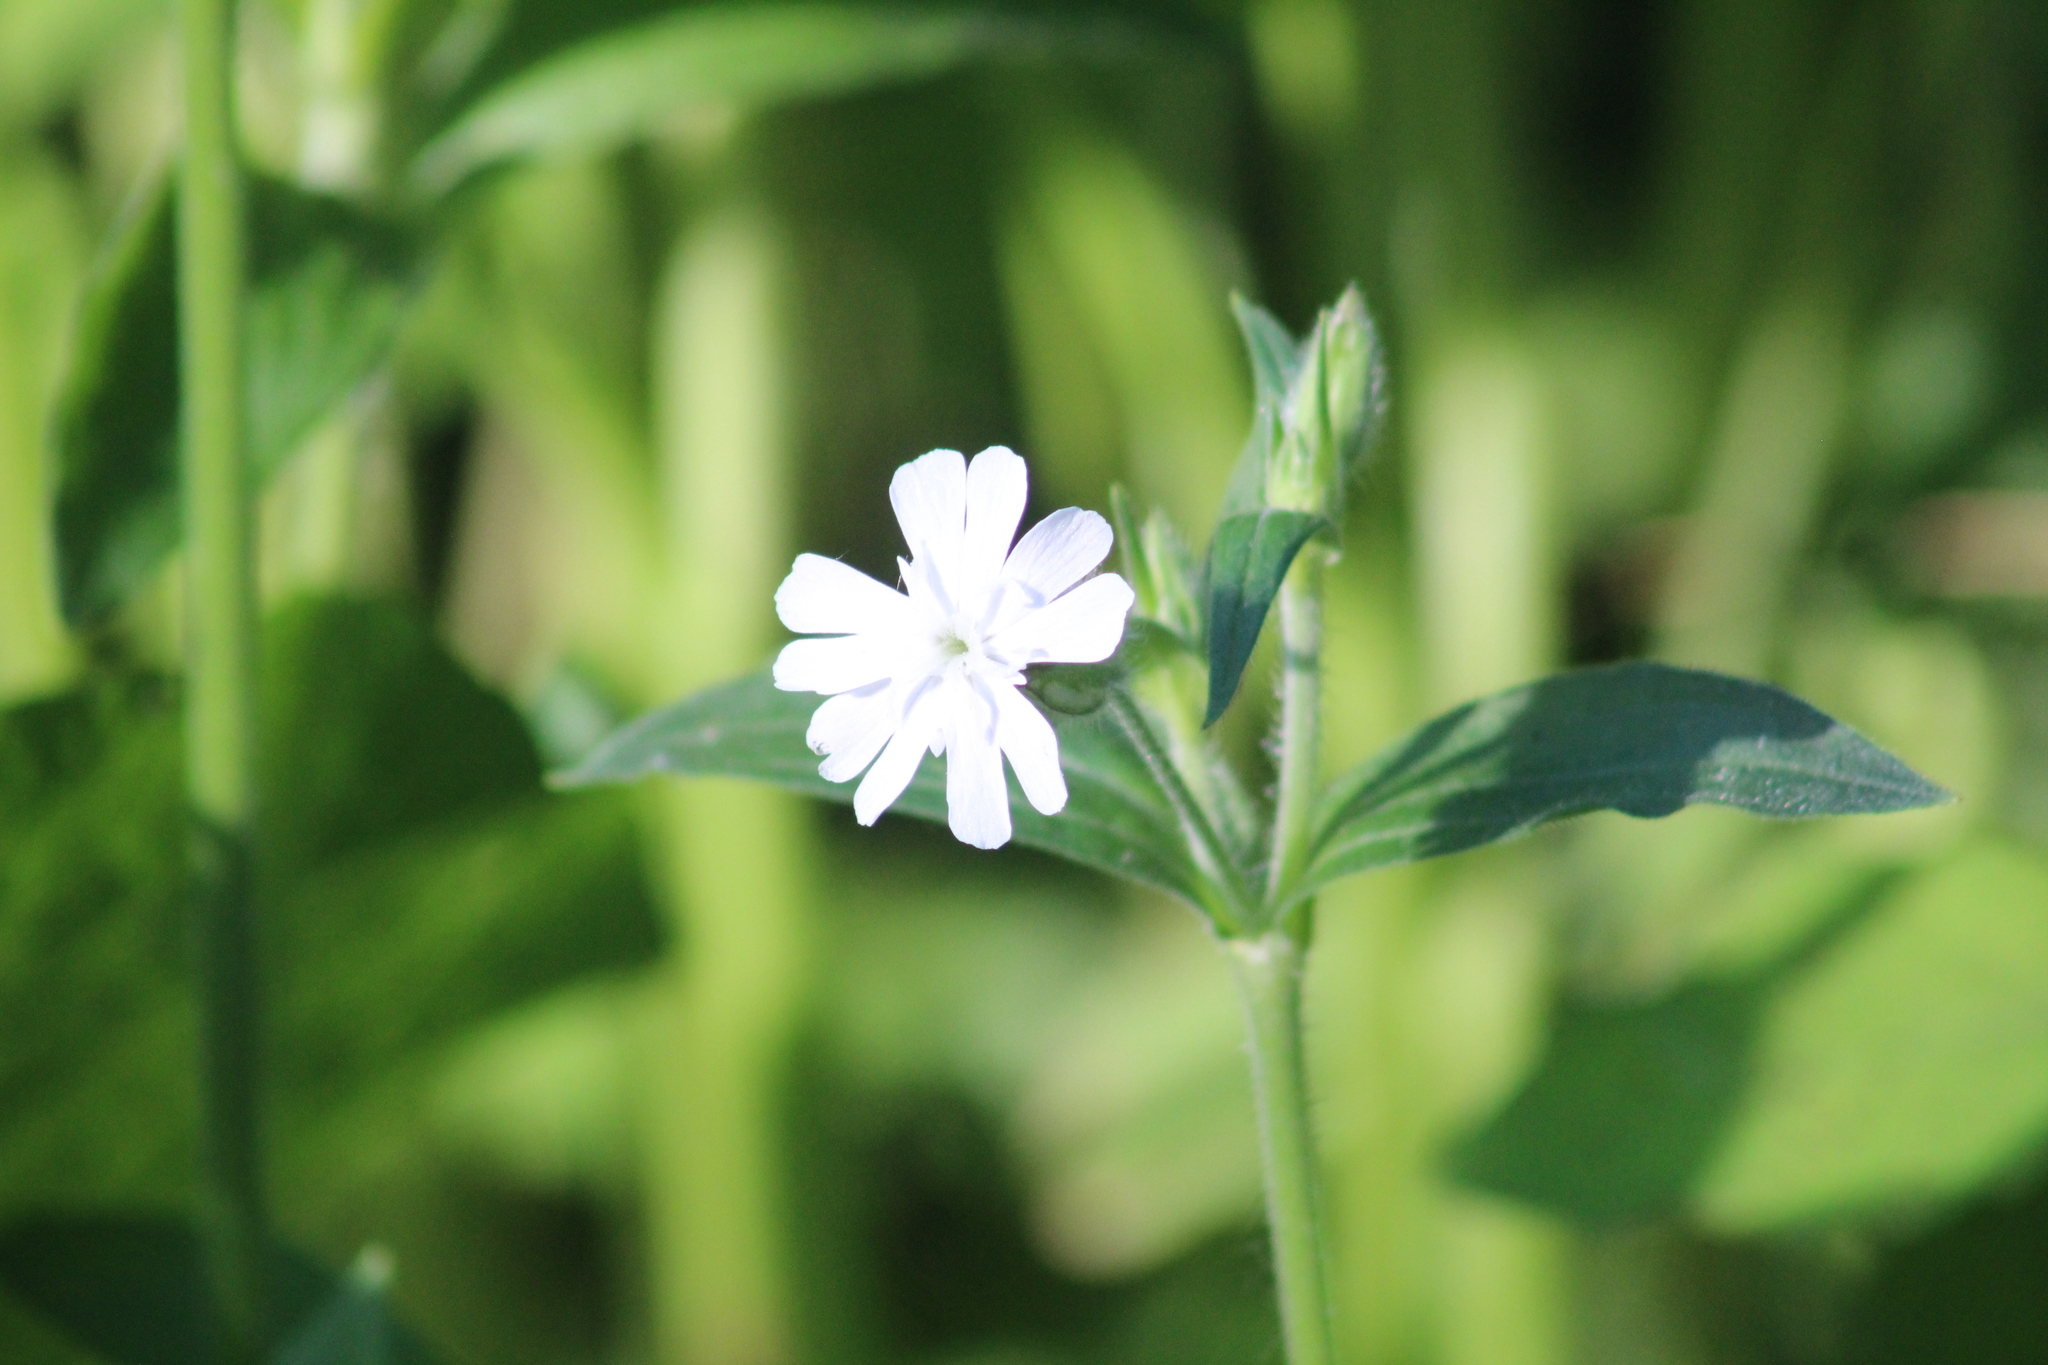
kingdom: Plantae
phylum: Tracheophyta
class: Magnoliopsida
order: Caryophyllales
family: Caryophyllaceae
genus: Silene
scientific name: Silene latifolia
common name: White campion
